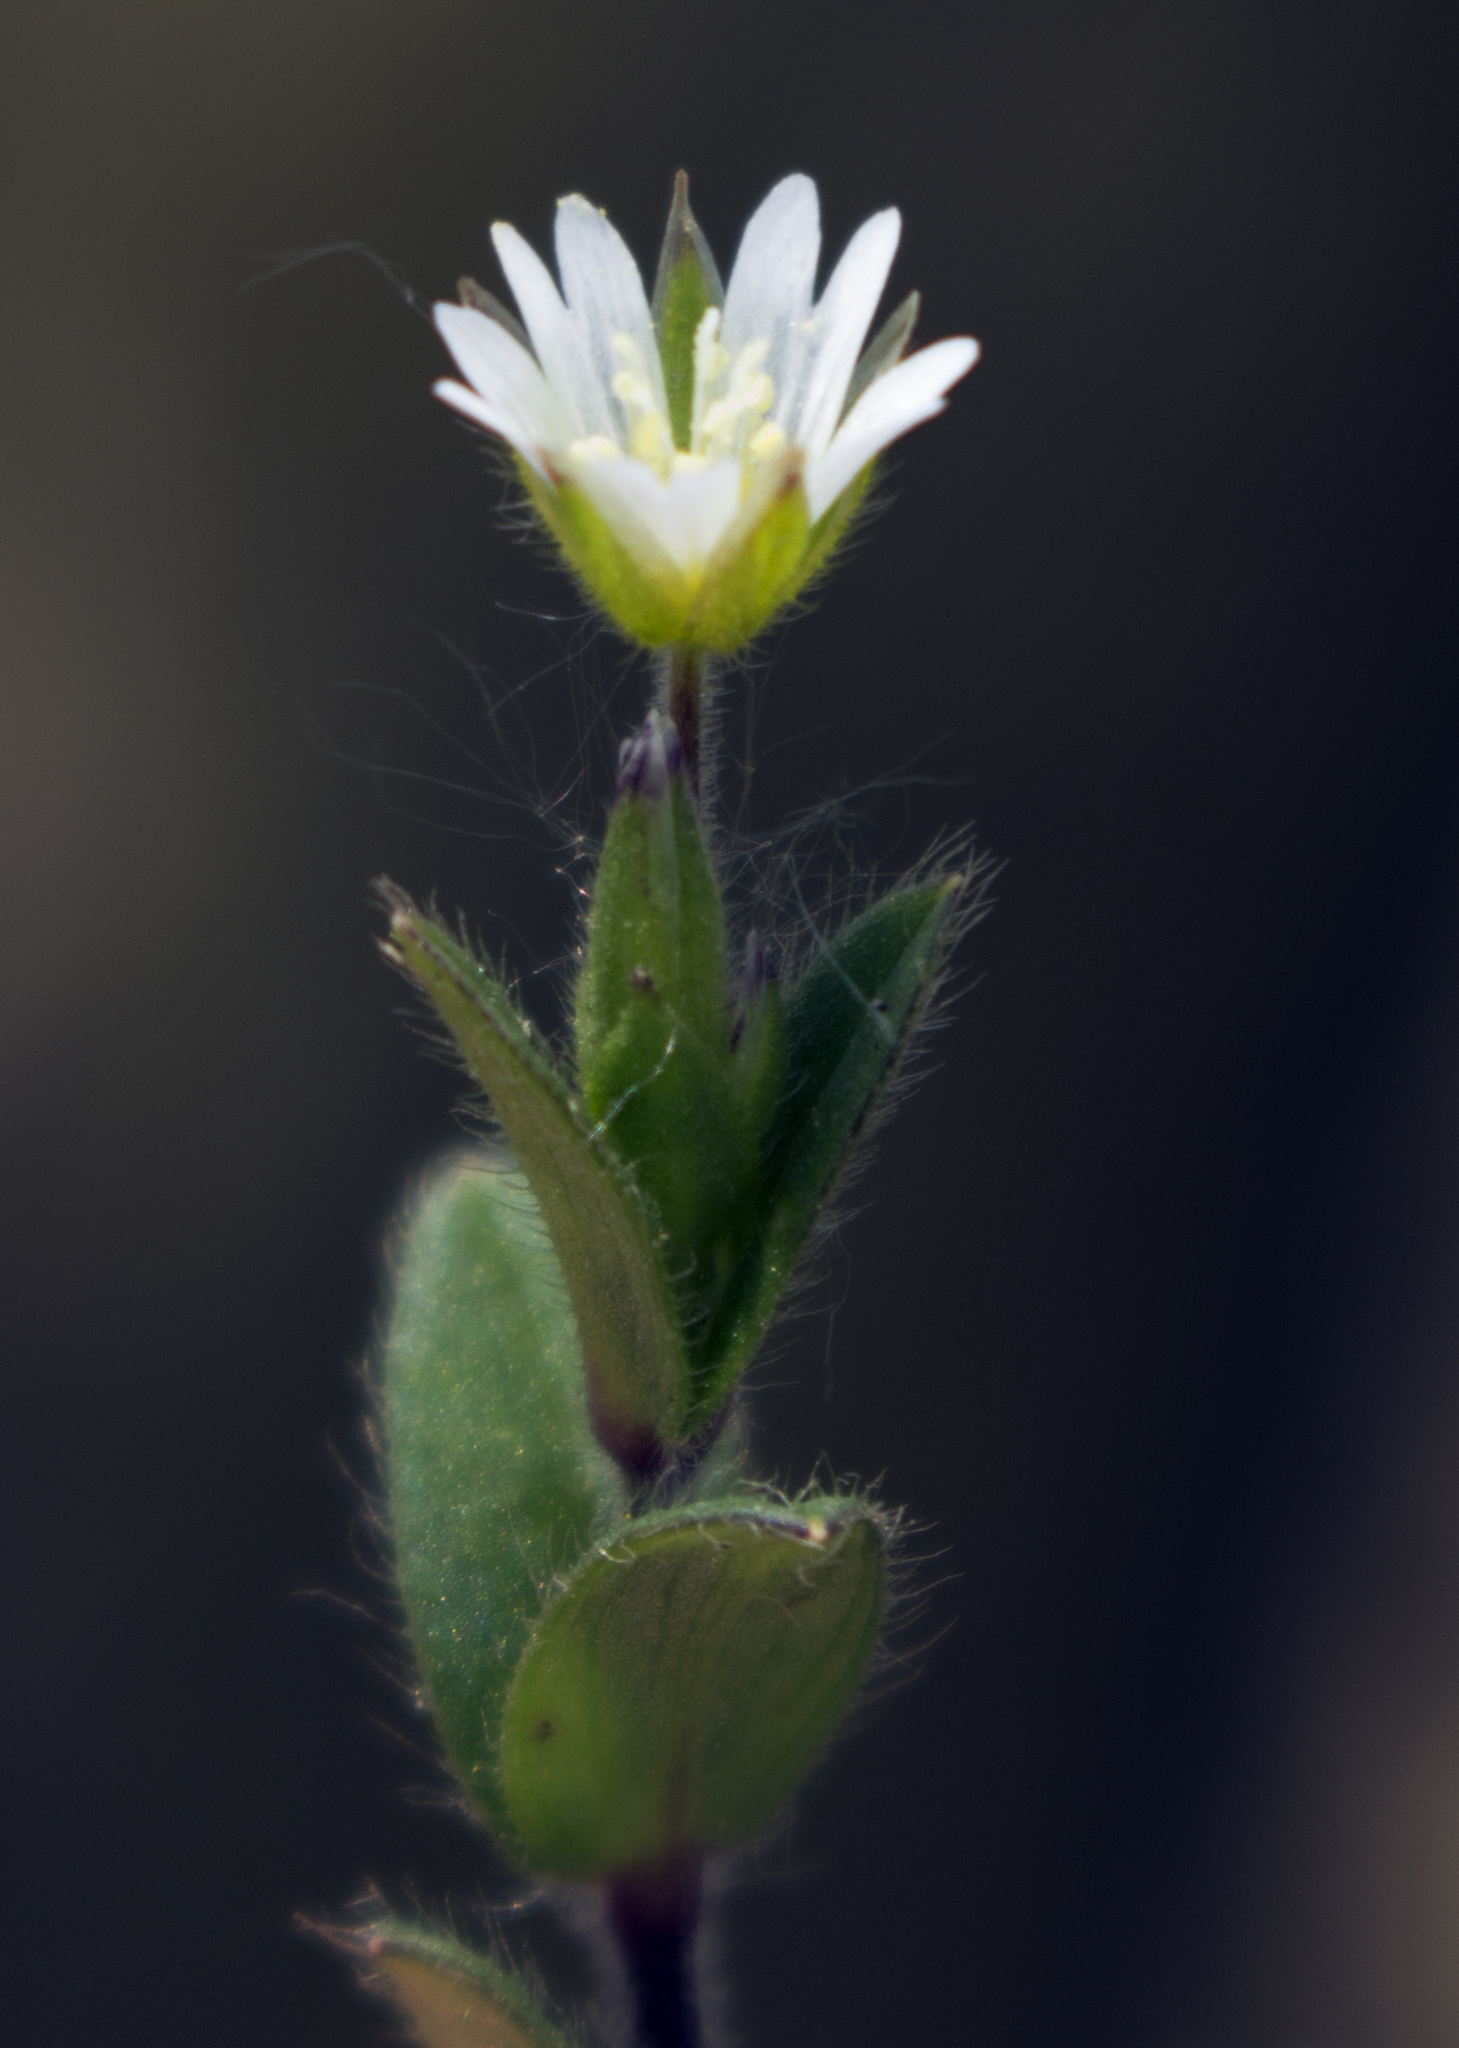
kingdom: Plantae
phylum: Tracheophyta
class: Magnoliopsida
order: Caryophyllales
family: Caryophyllaceae
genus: Cerastium
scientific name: Cerastium fontanum
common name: Common mouse-ear
